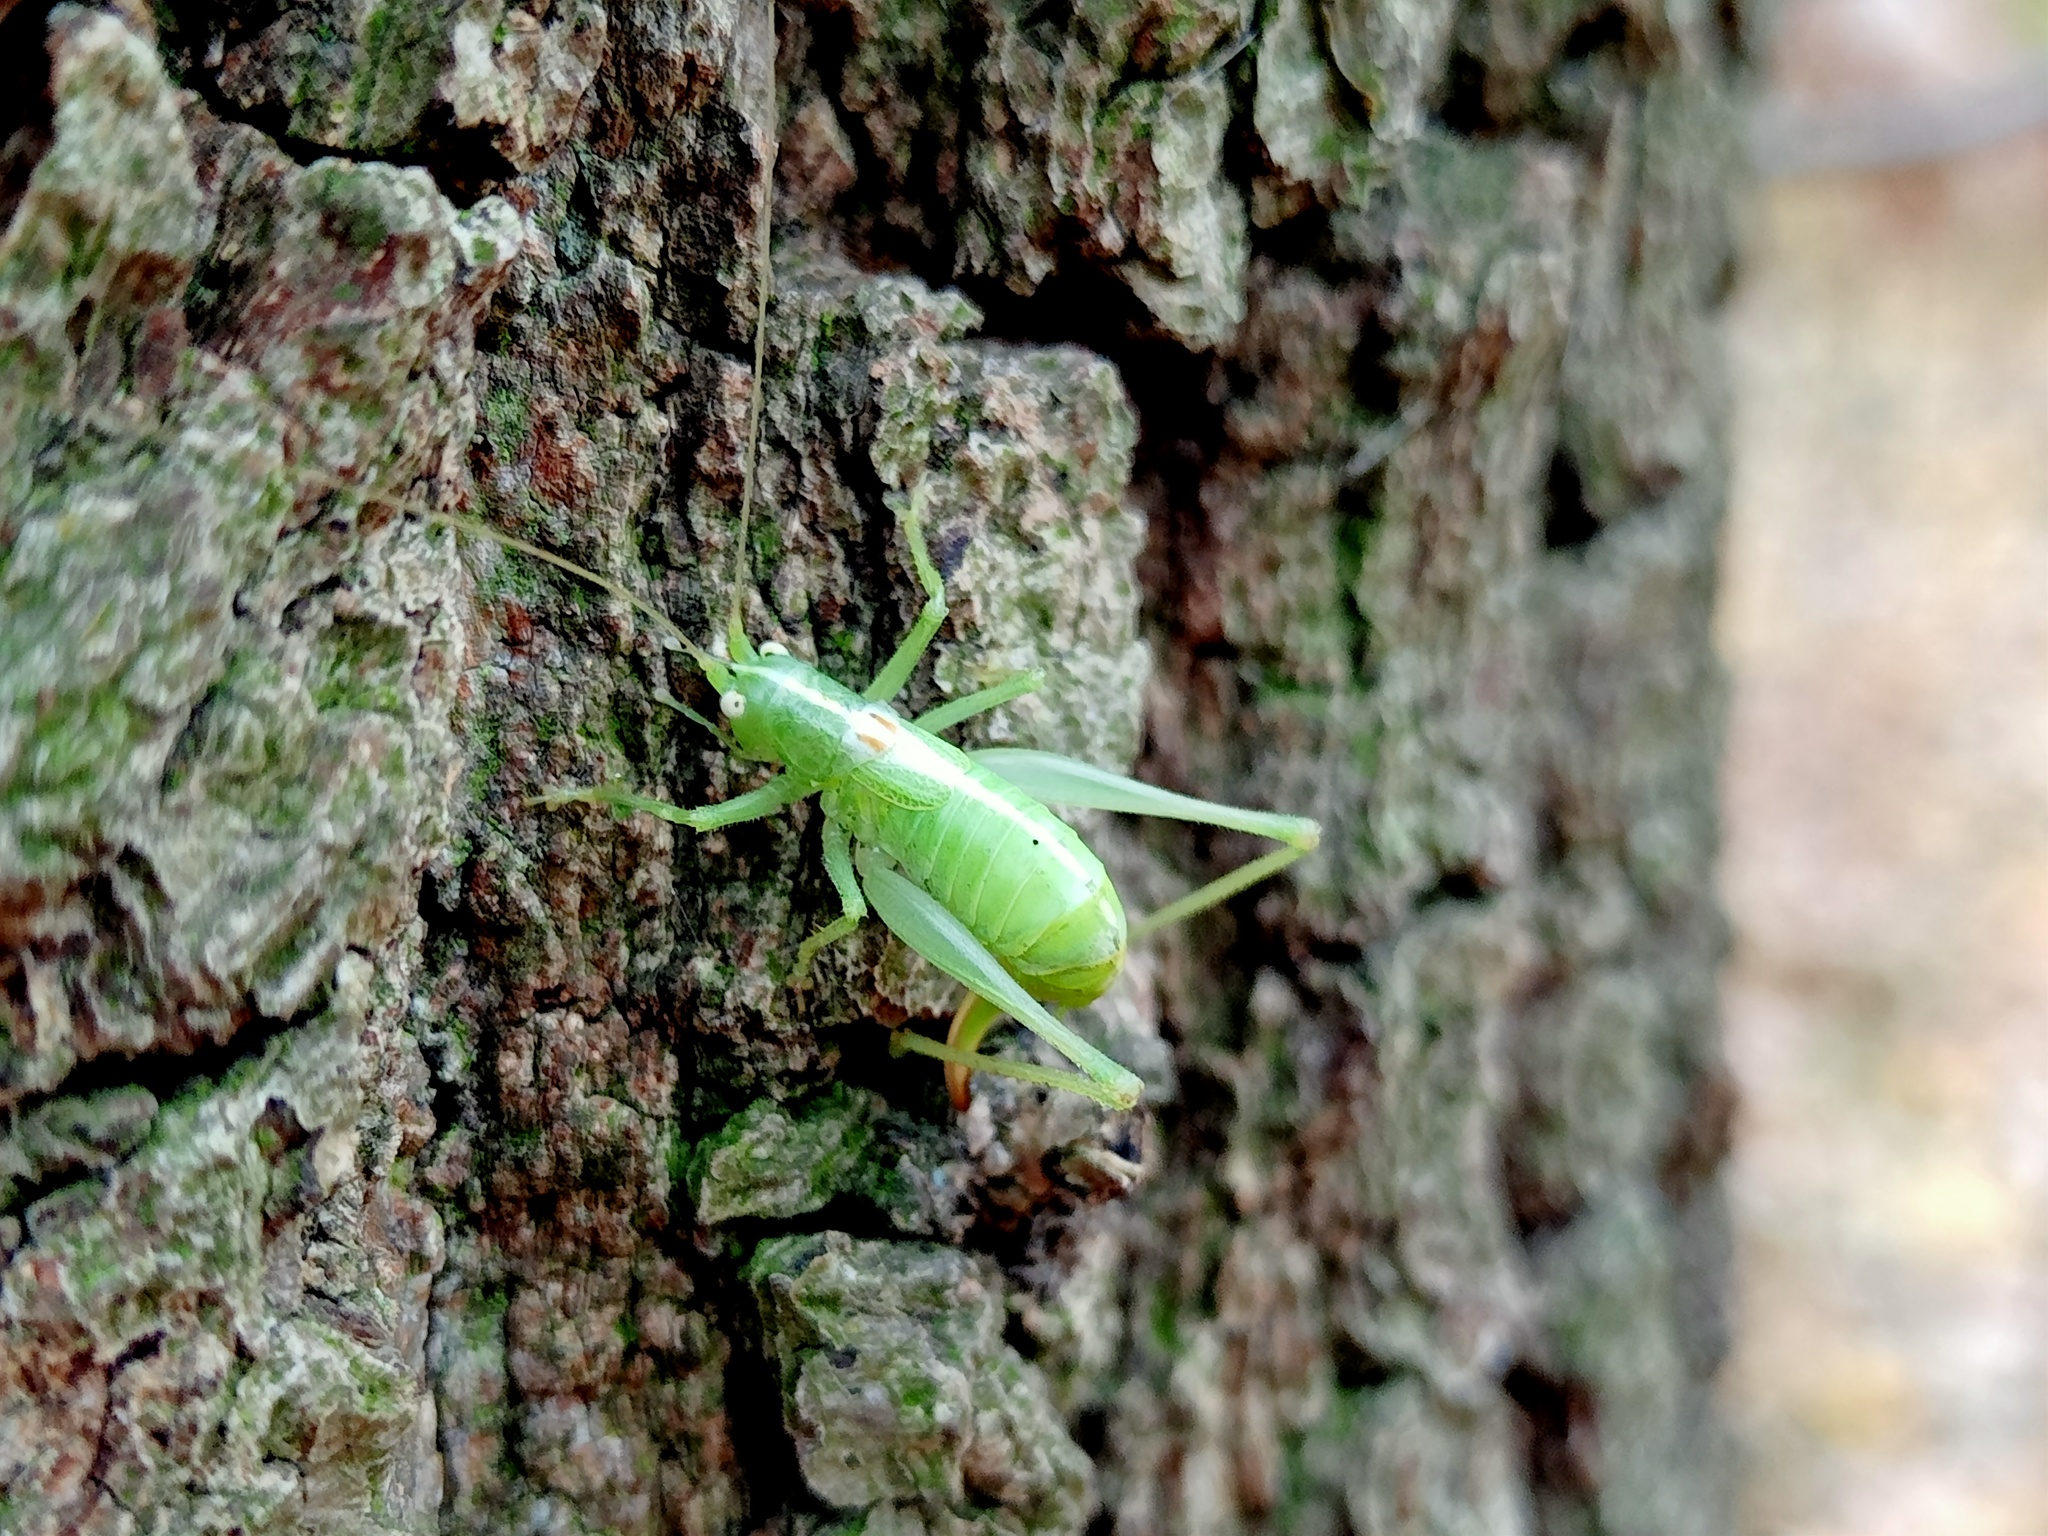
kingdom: Animalia
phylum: Arthropoda
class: Insecta
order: Orthoptera
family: Tettigoniidae
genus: Meconema
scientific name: Meconema meridionale
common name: Southern oak bush-cricket
